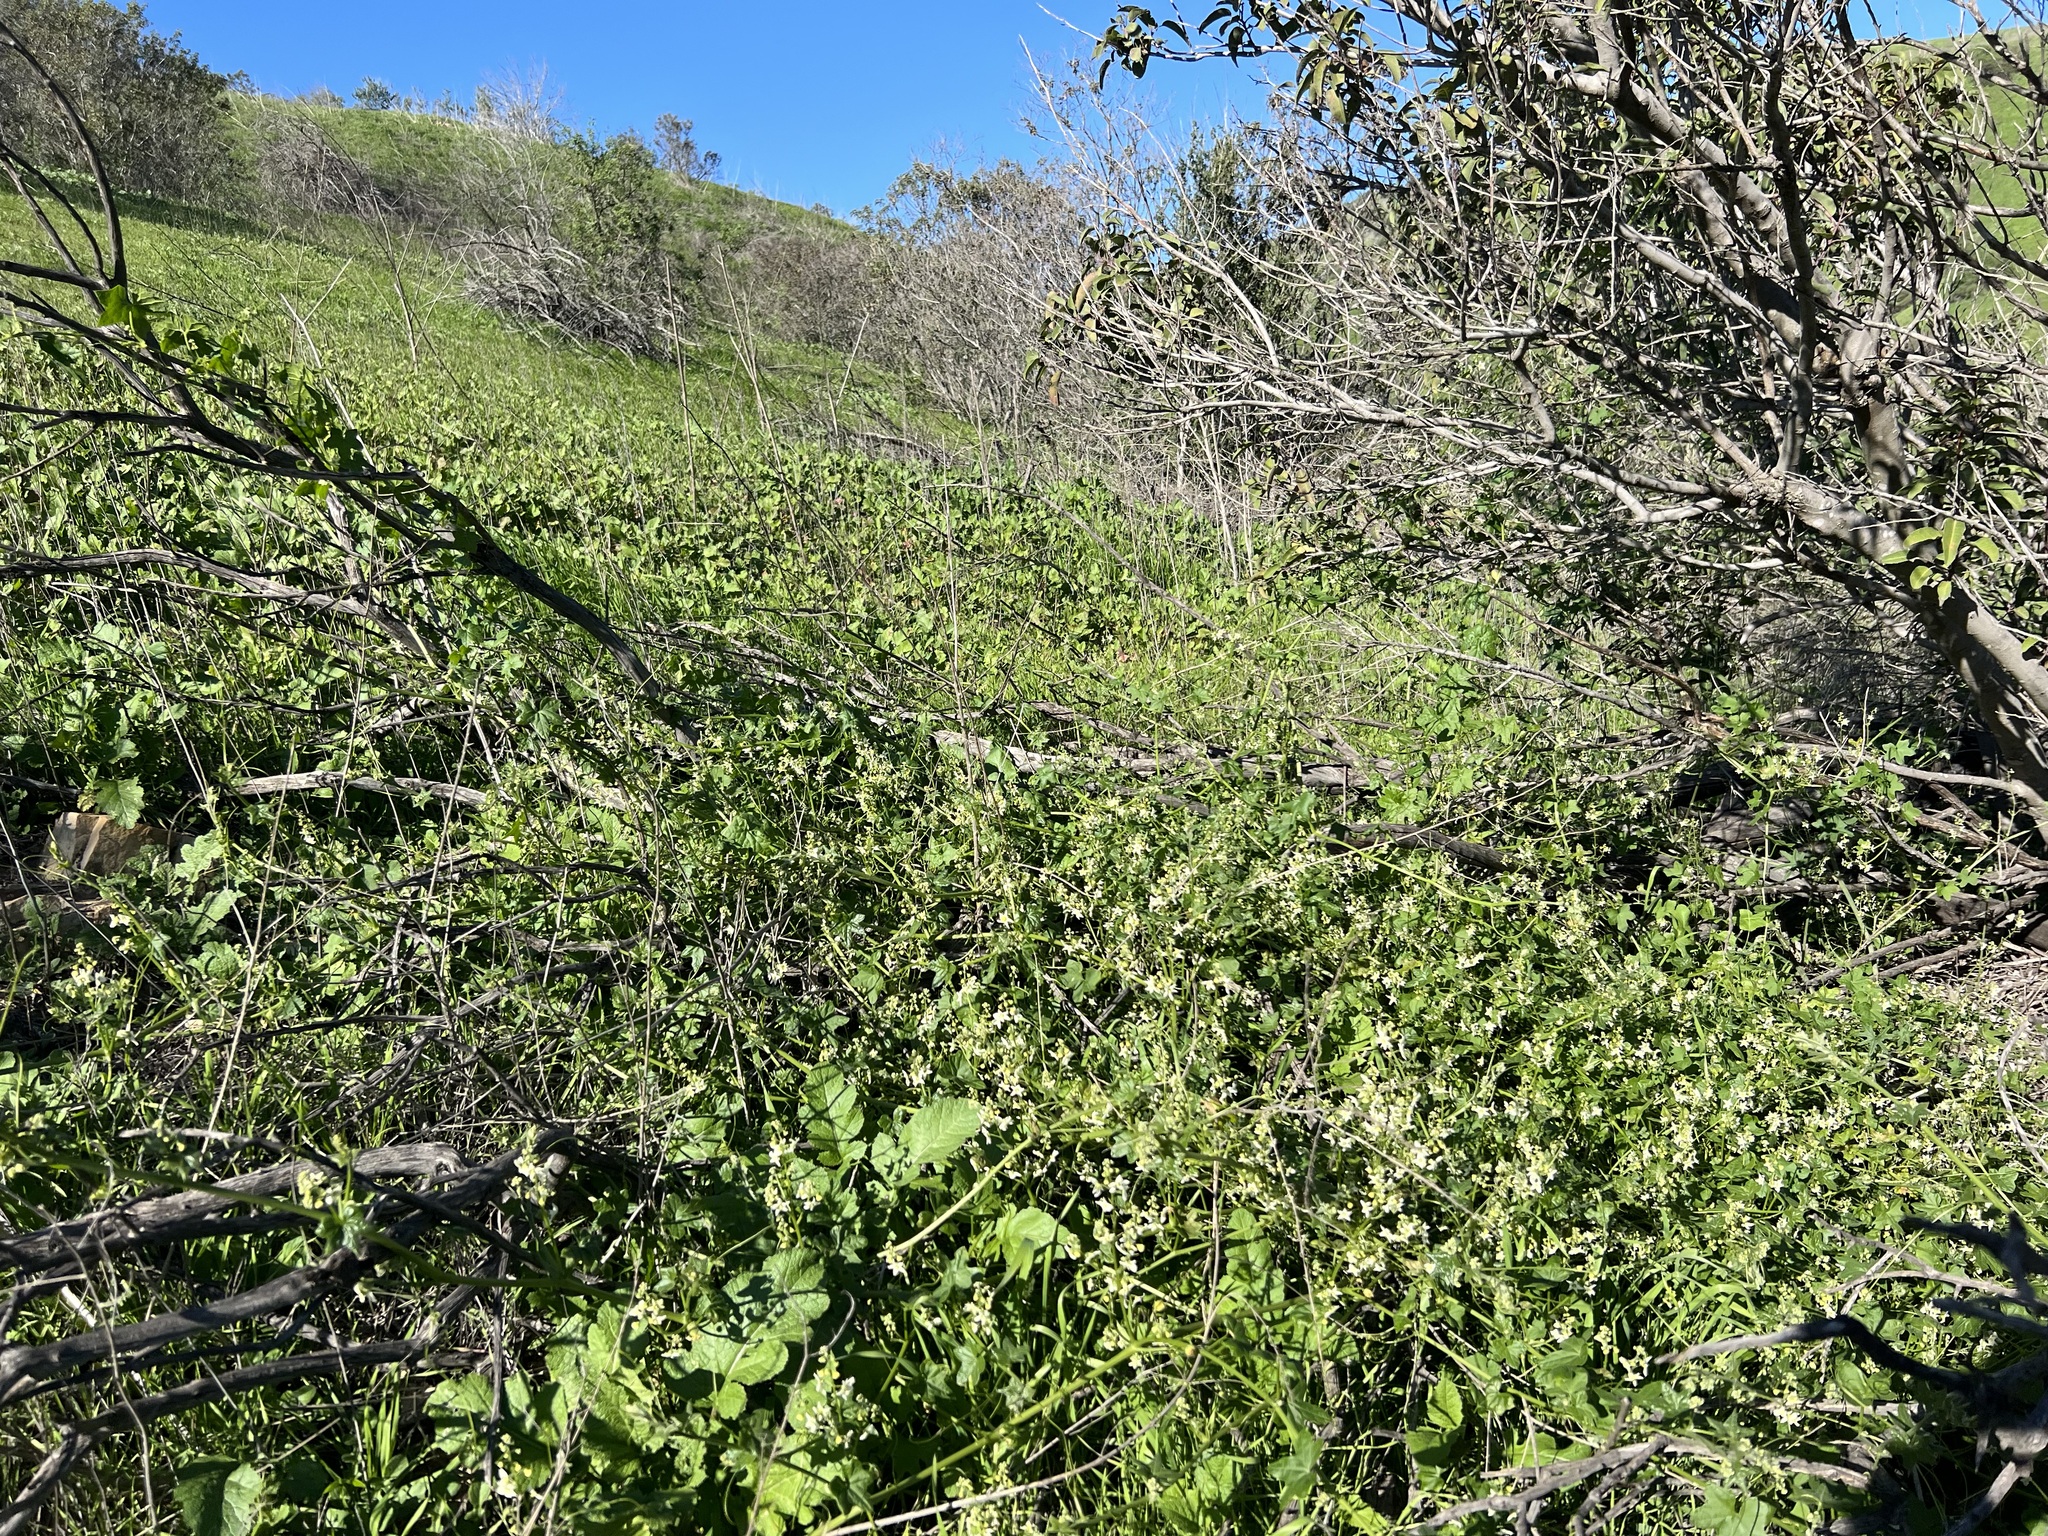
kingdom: Plantae
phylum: Tracheophyta
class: Magnoliopsida
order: Cucurbitales
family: Cucurbitaceae
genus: Marah
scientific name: Marah macrocarpa
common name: Cucamonga manroot
